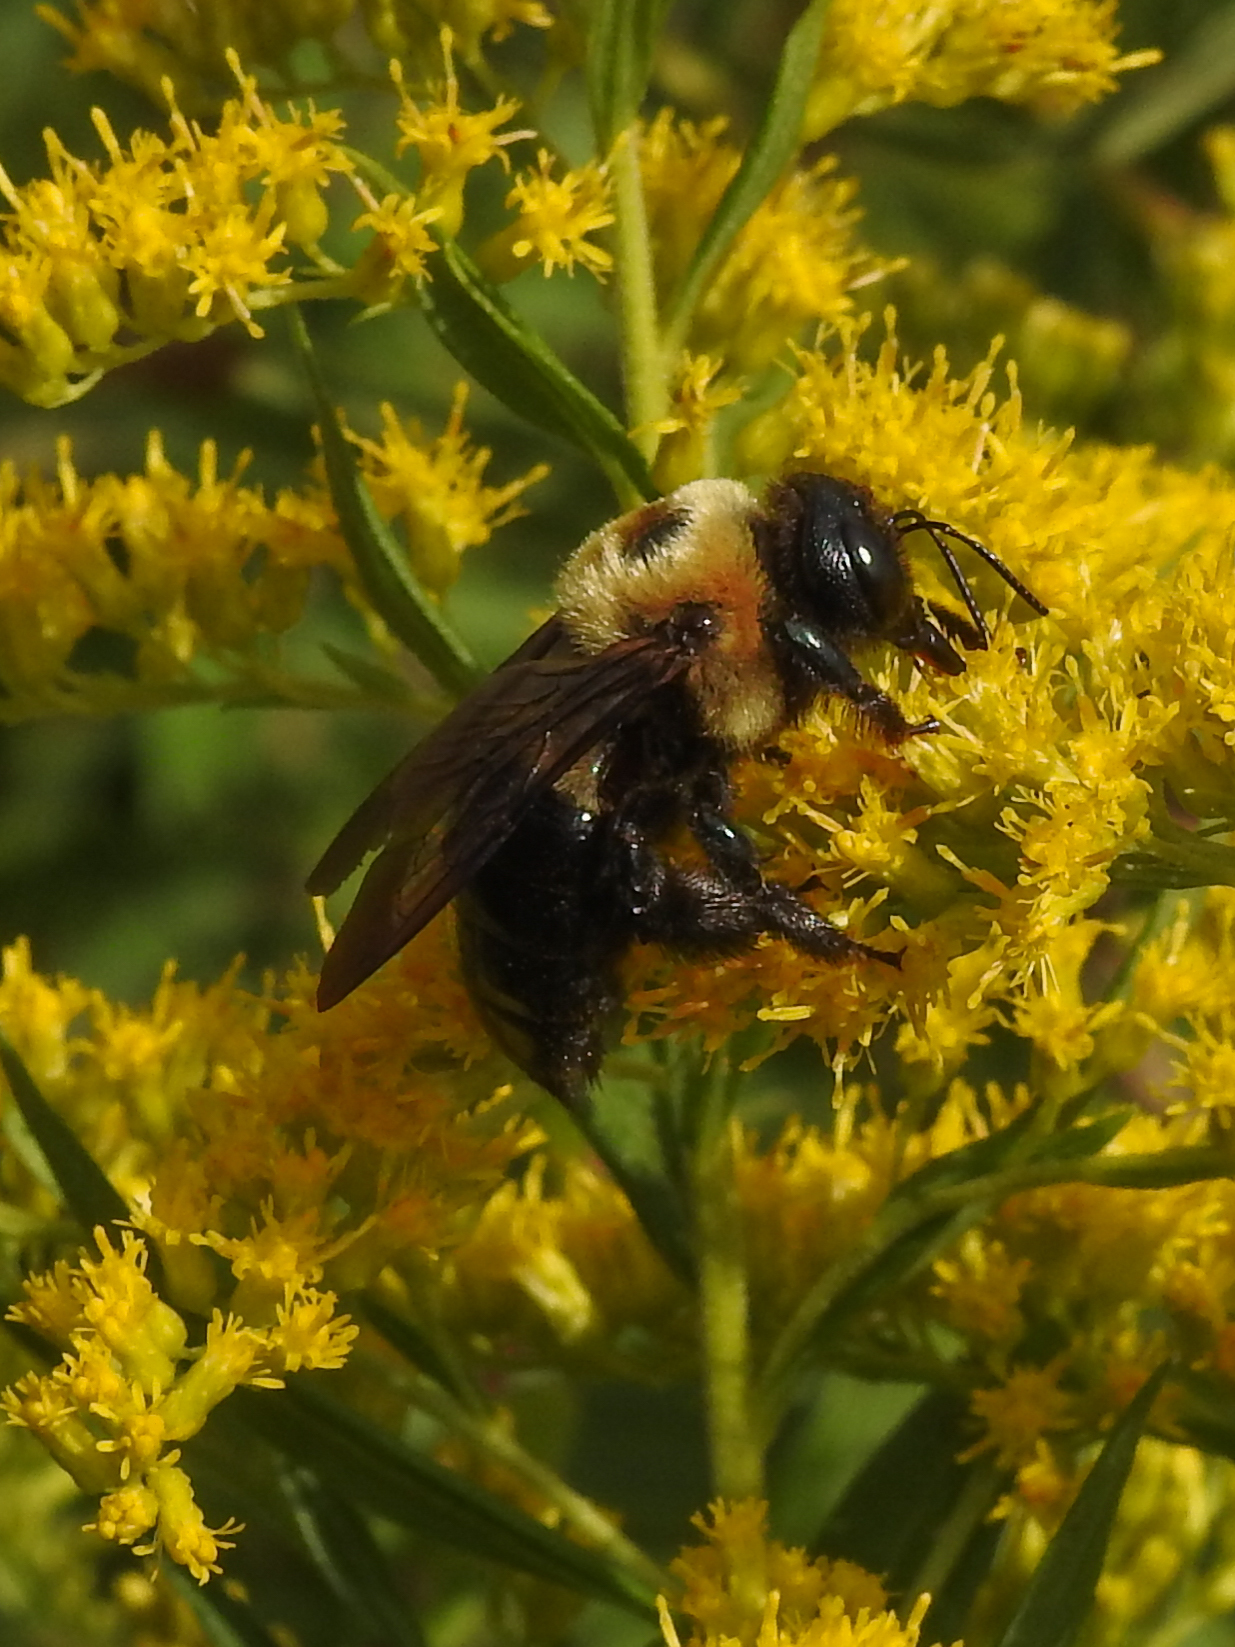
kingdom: Animalia
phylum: Arthropoda
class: Insecta
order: Hymenoptera
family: Apidae
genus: Xylocopa
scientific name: Xylocopa virginica
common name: Carpenter bee
